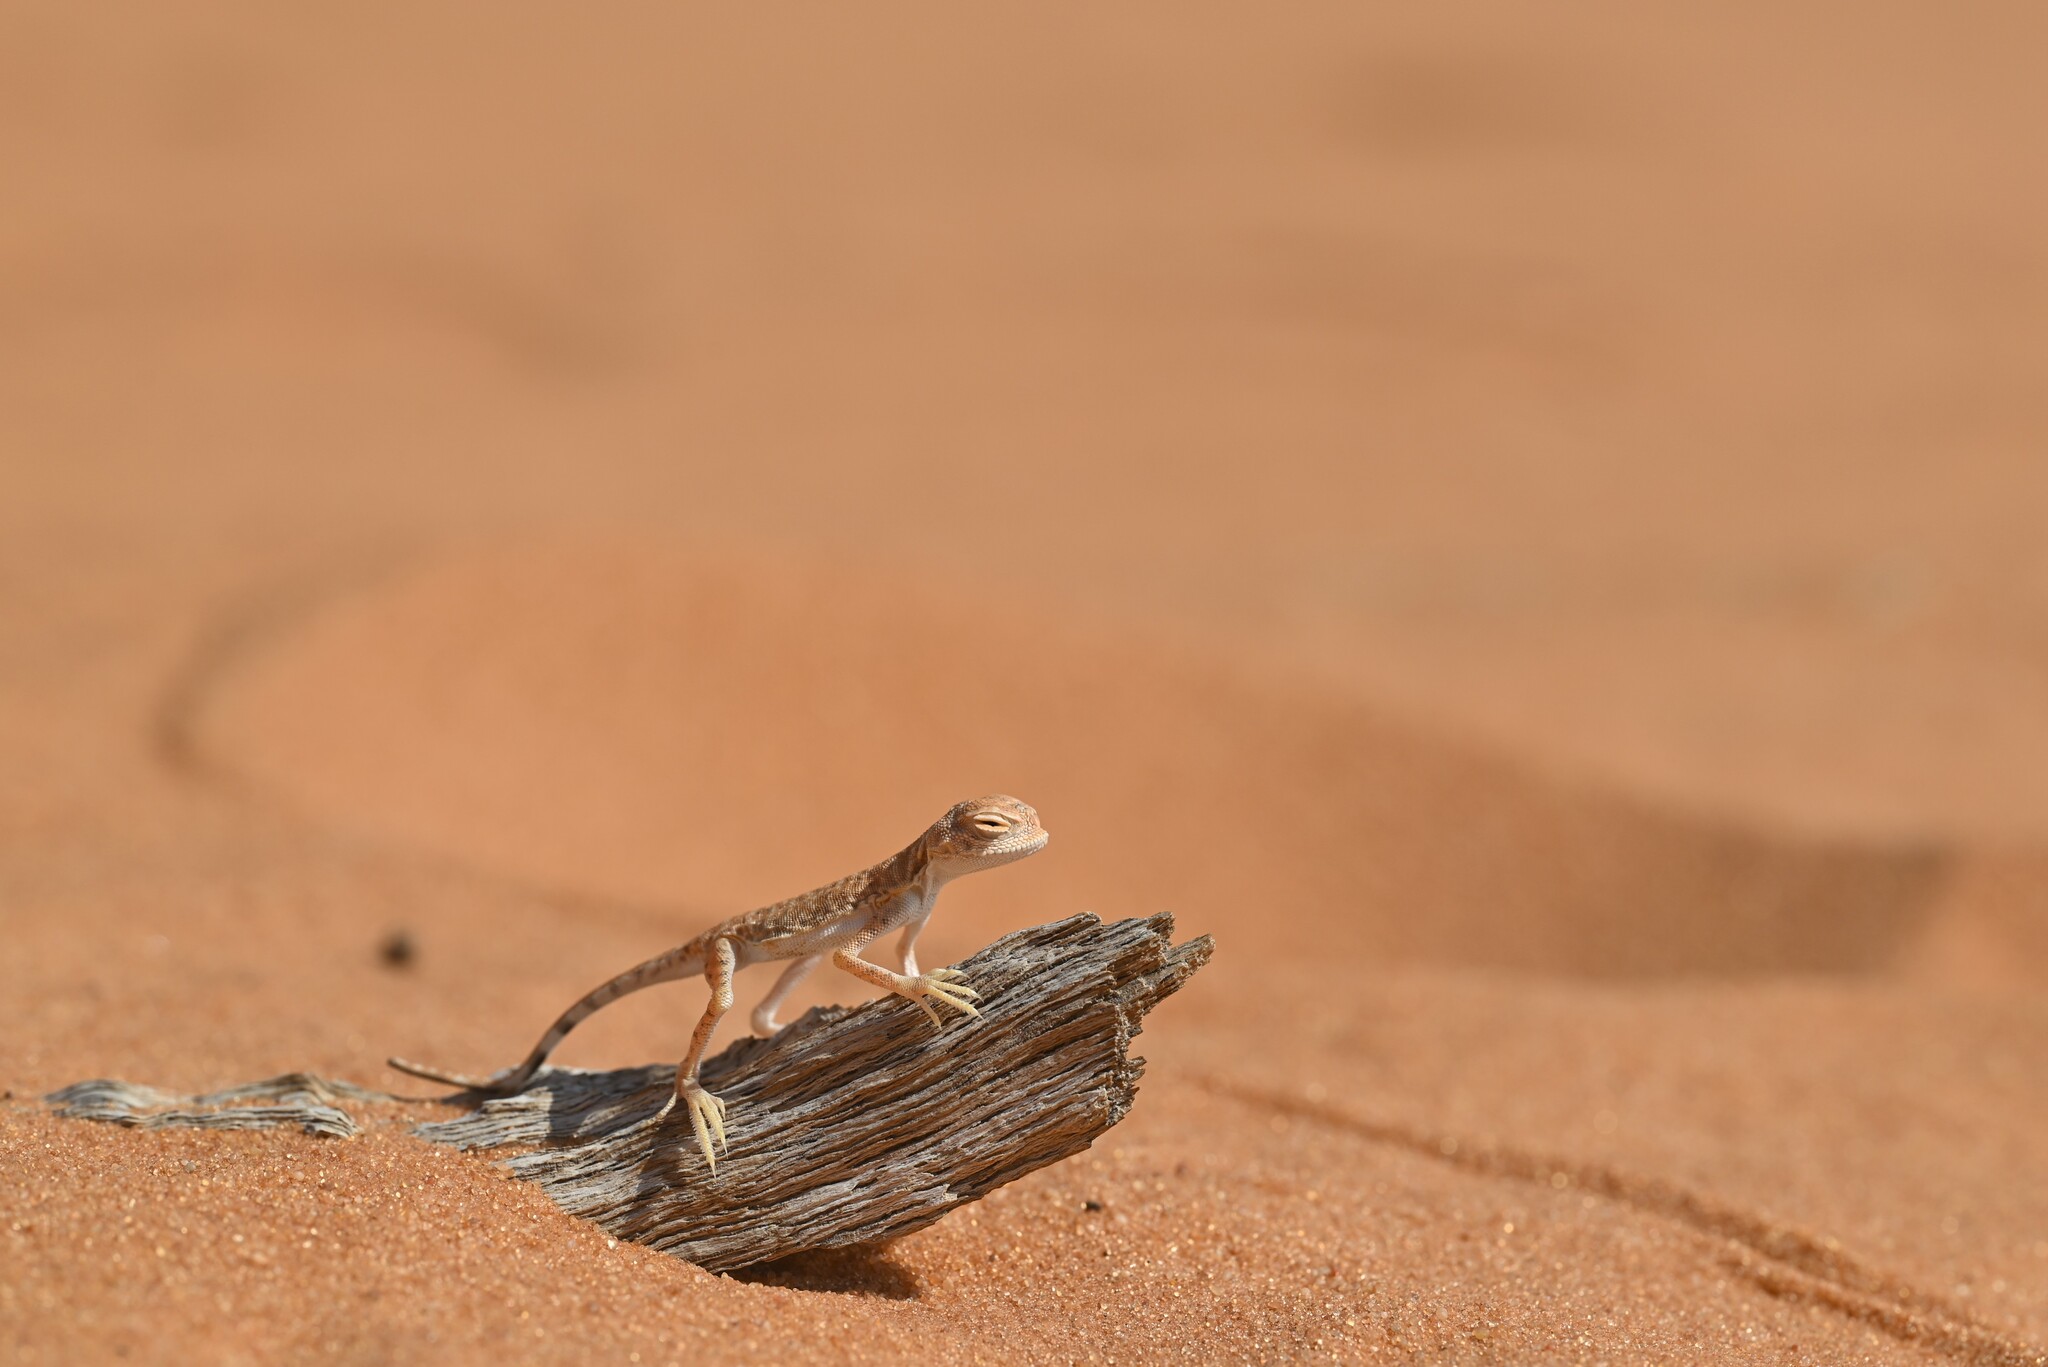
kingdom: Animalia
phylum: Chordata
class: Squamata
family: Agamidae
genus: Phrynocephalus
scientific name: Phrynocephalus arabicus
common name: Arabian toad-headed agama
